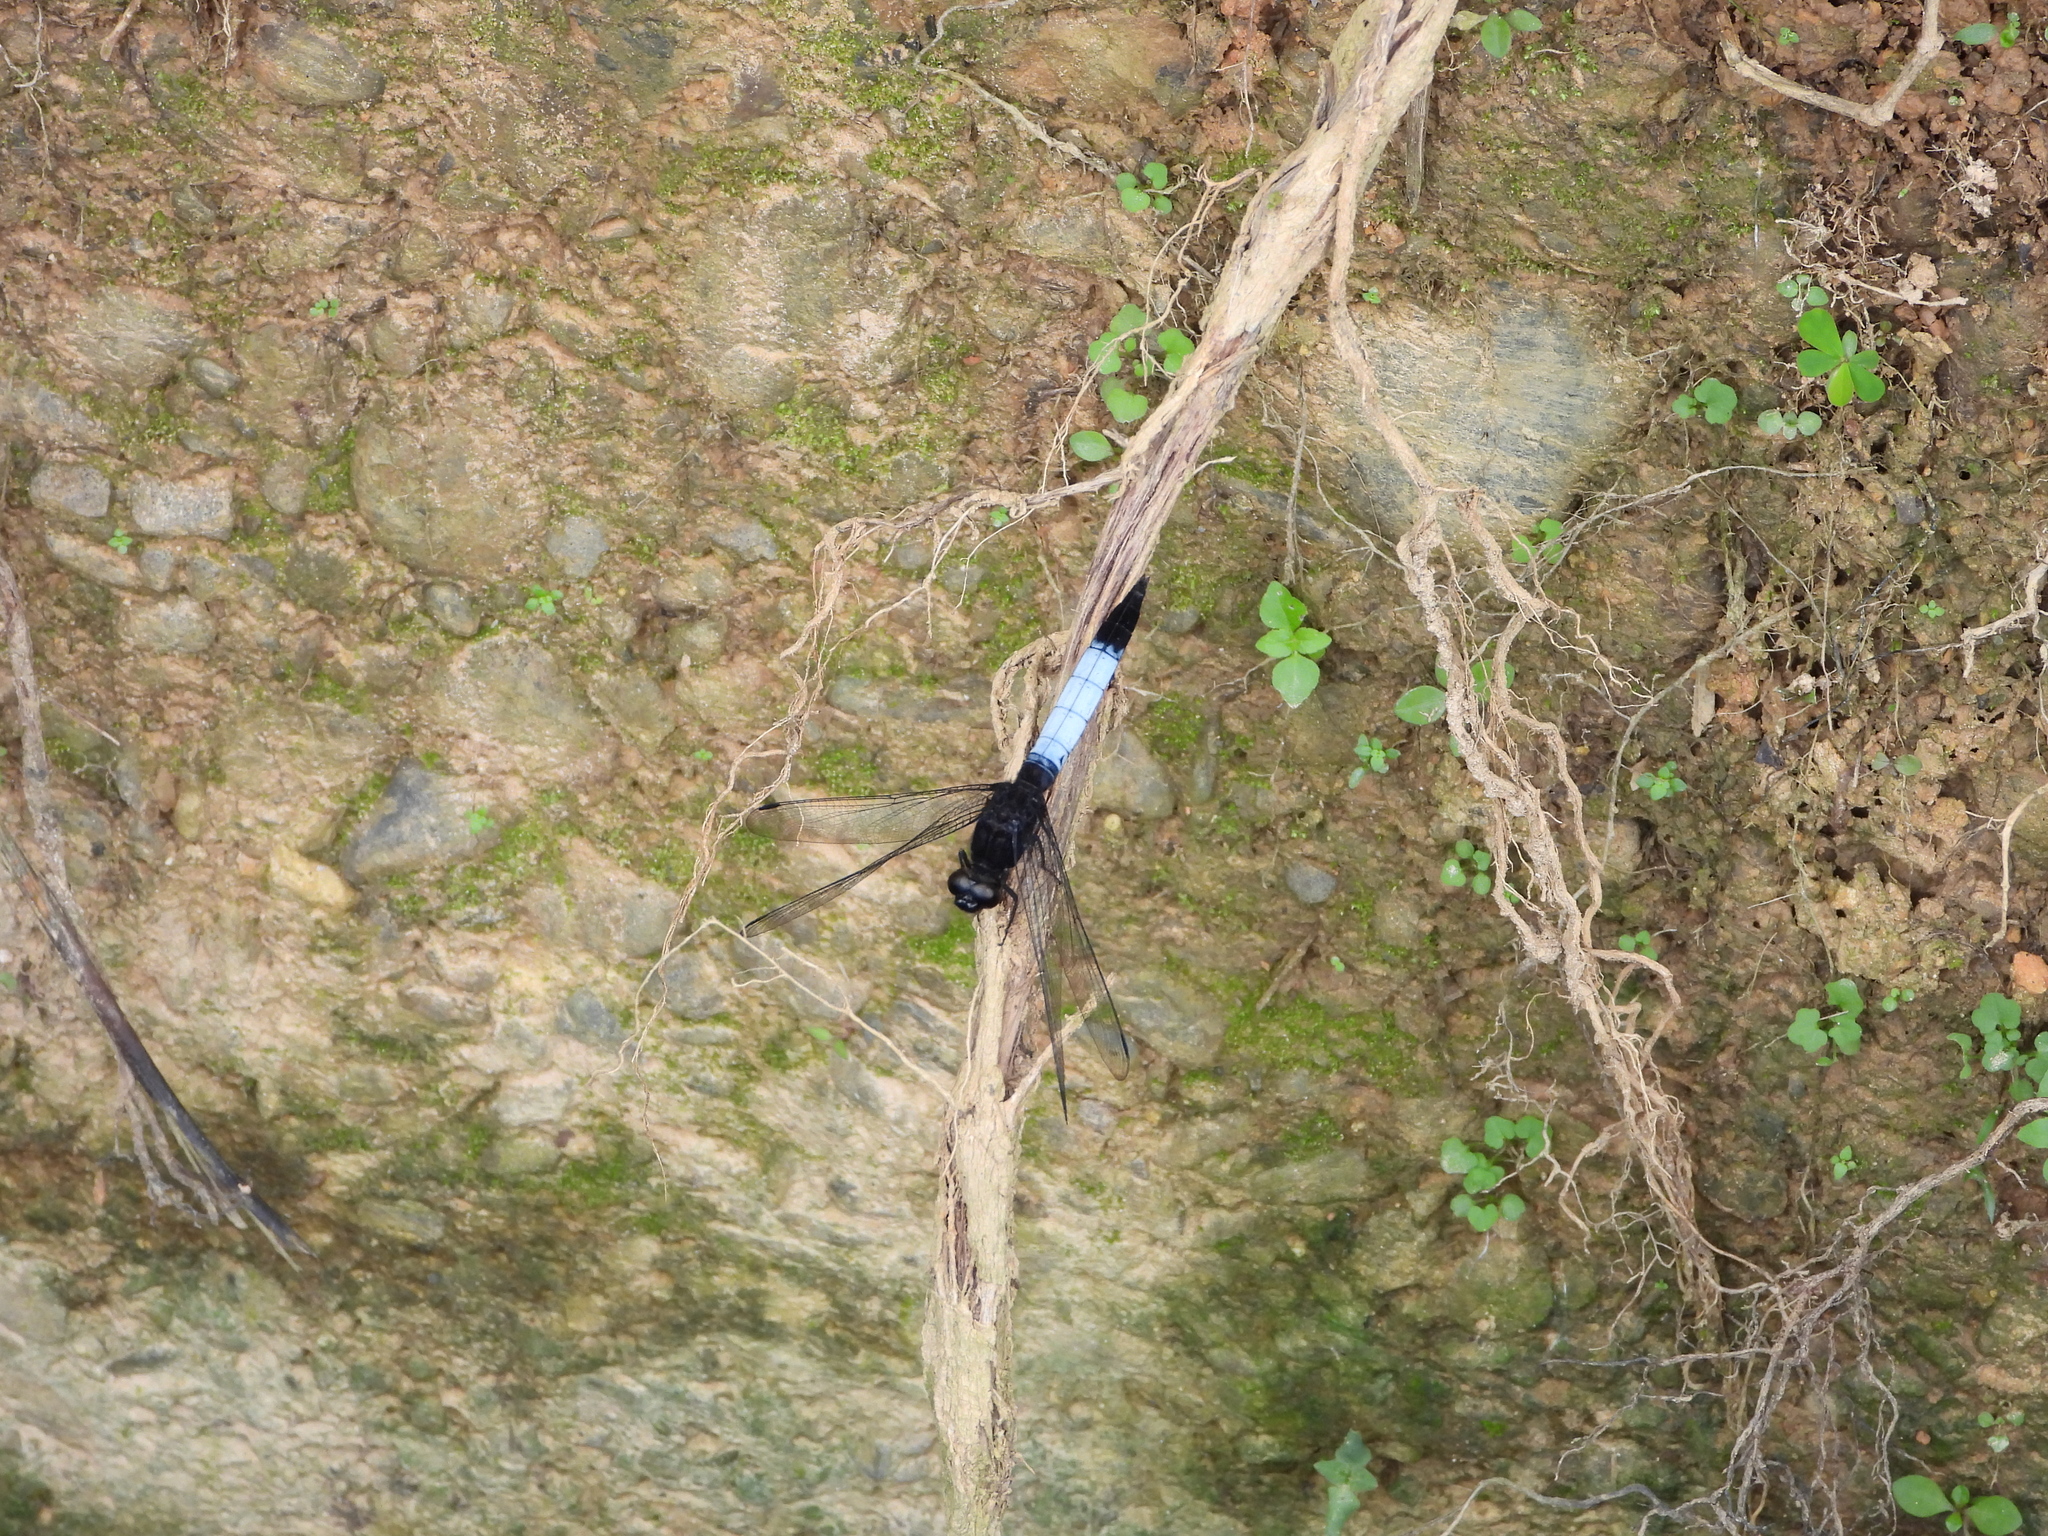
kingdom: Animalia
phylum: Arthropoda
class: Insecta
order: Odonata
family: Libellulidae
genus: Orthetrum
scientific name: Orthetrum triangulare
